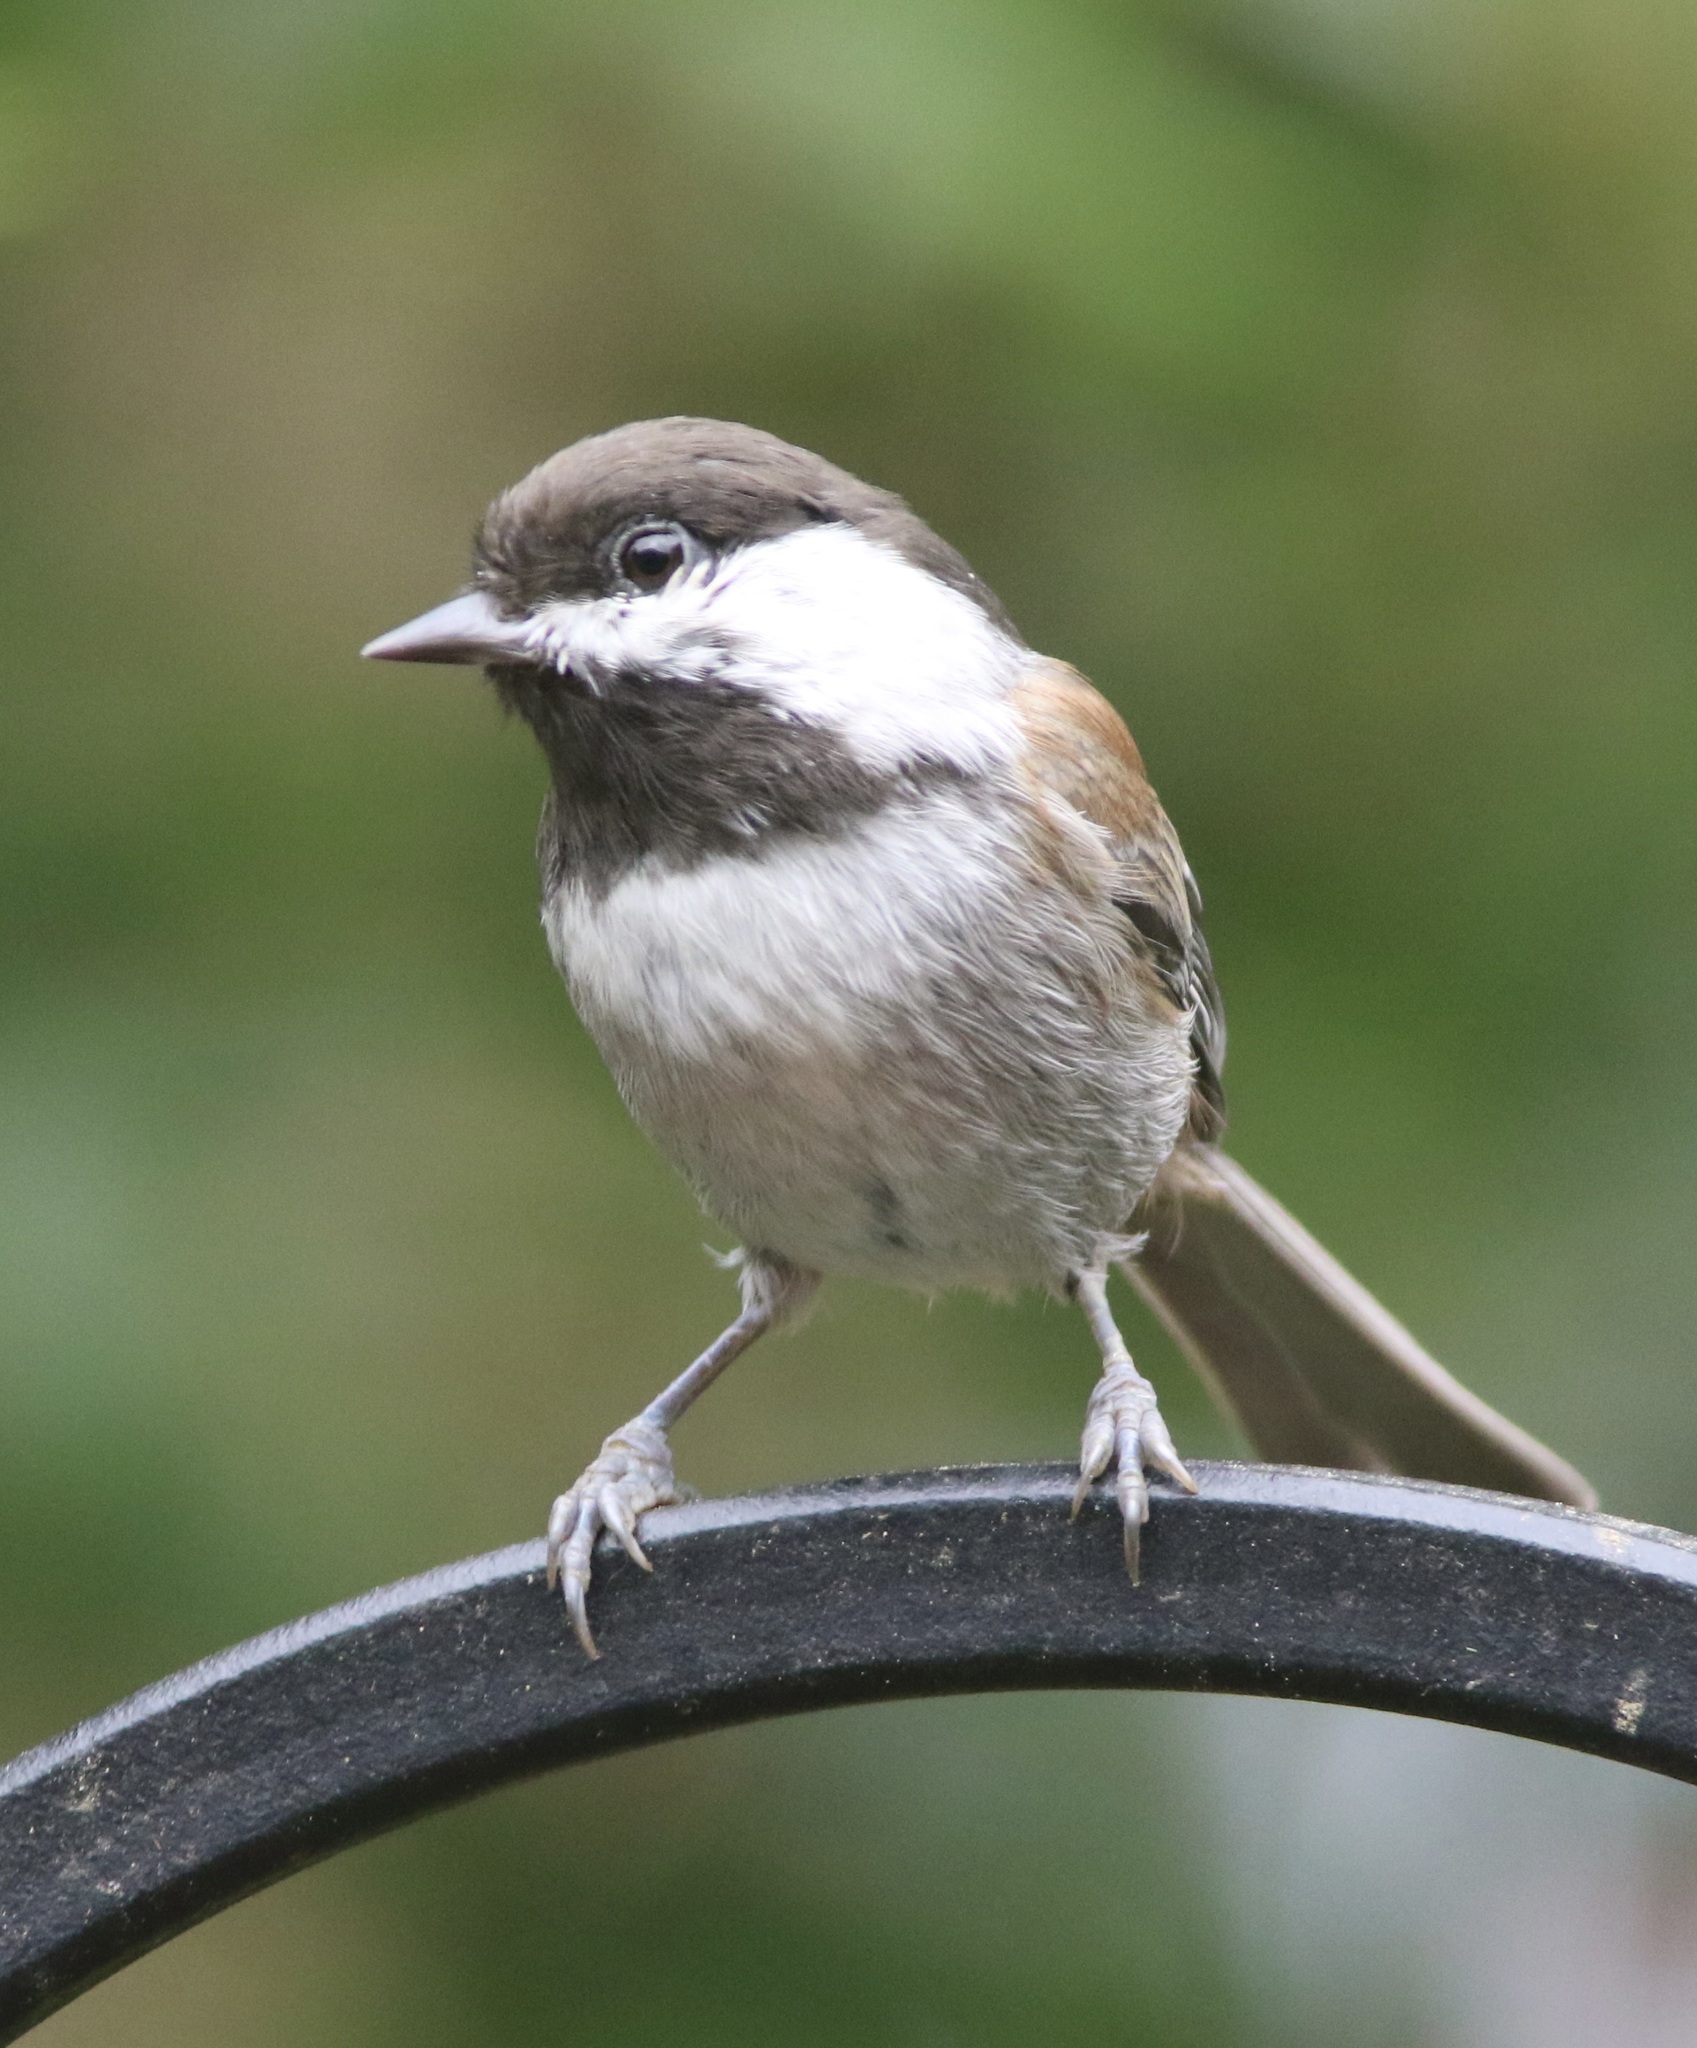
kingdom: Animalia
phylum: Chordata
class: Aves
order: Passeriformes
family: Paridae
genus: Poecile
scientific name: Poecile rufescens
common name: Chestnut-backed chickadee
